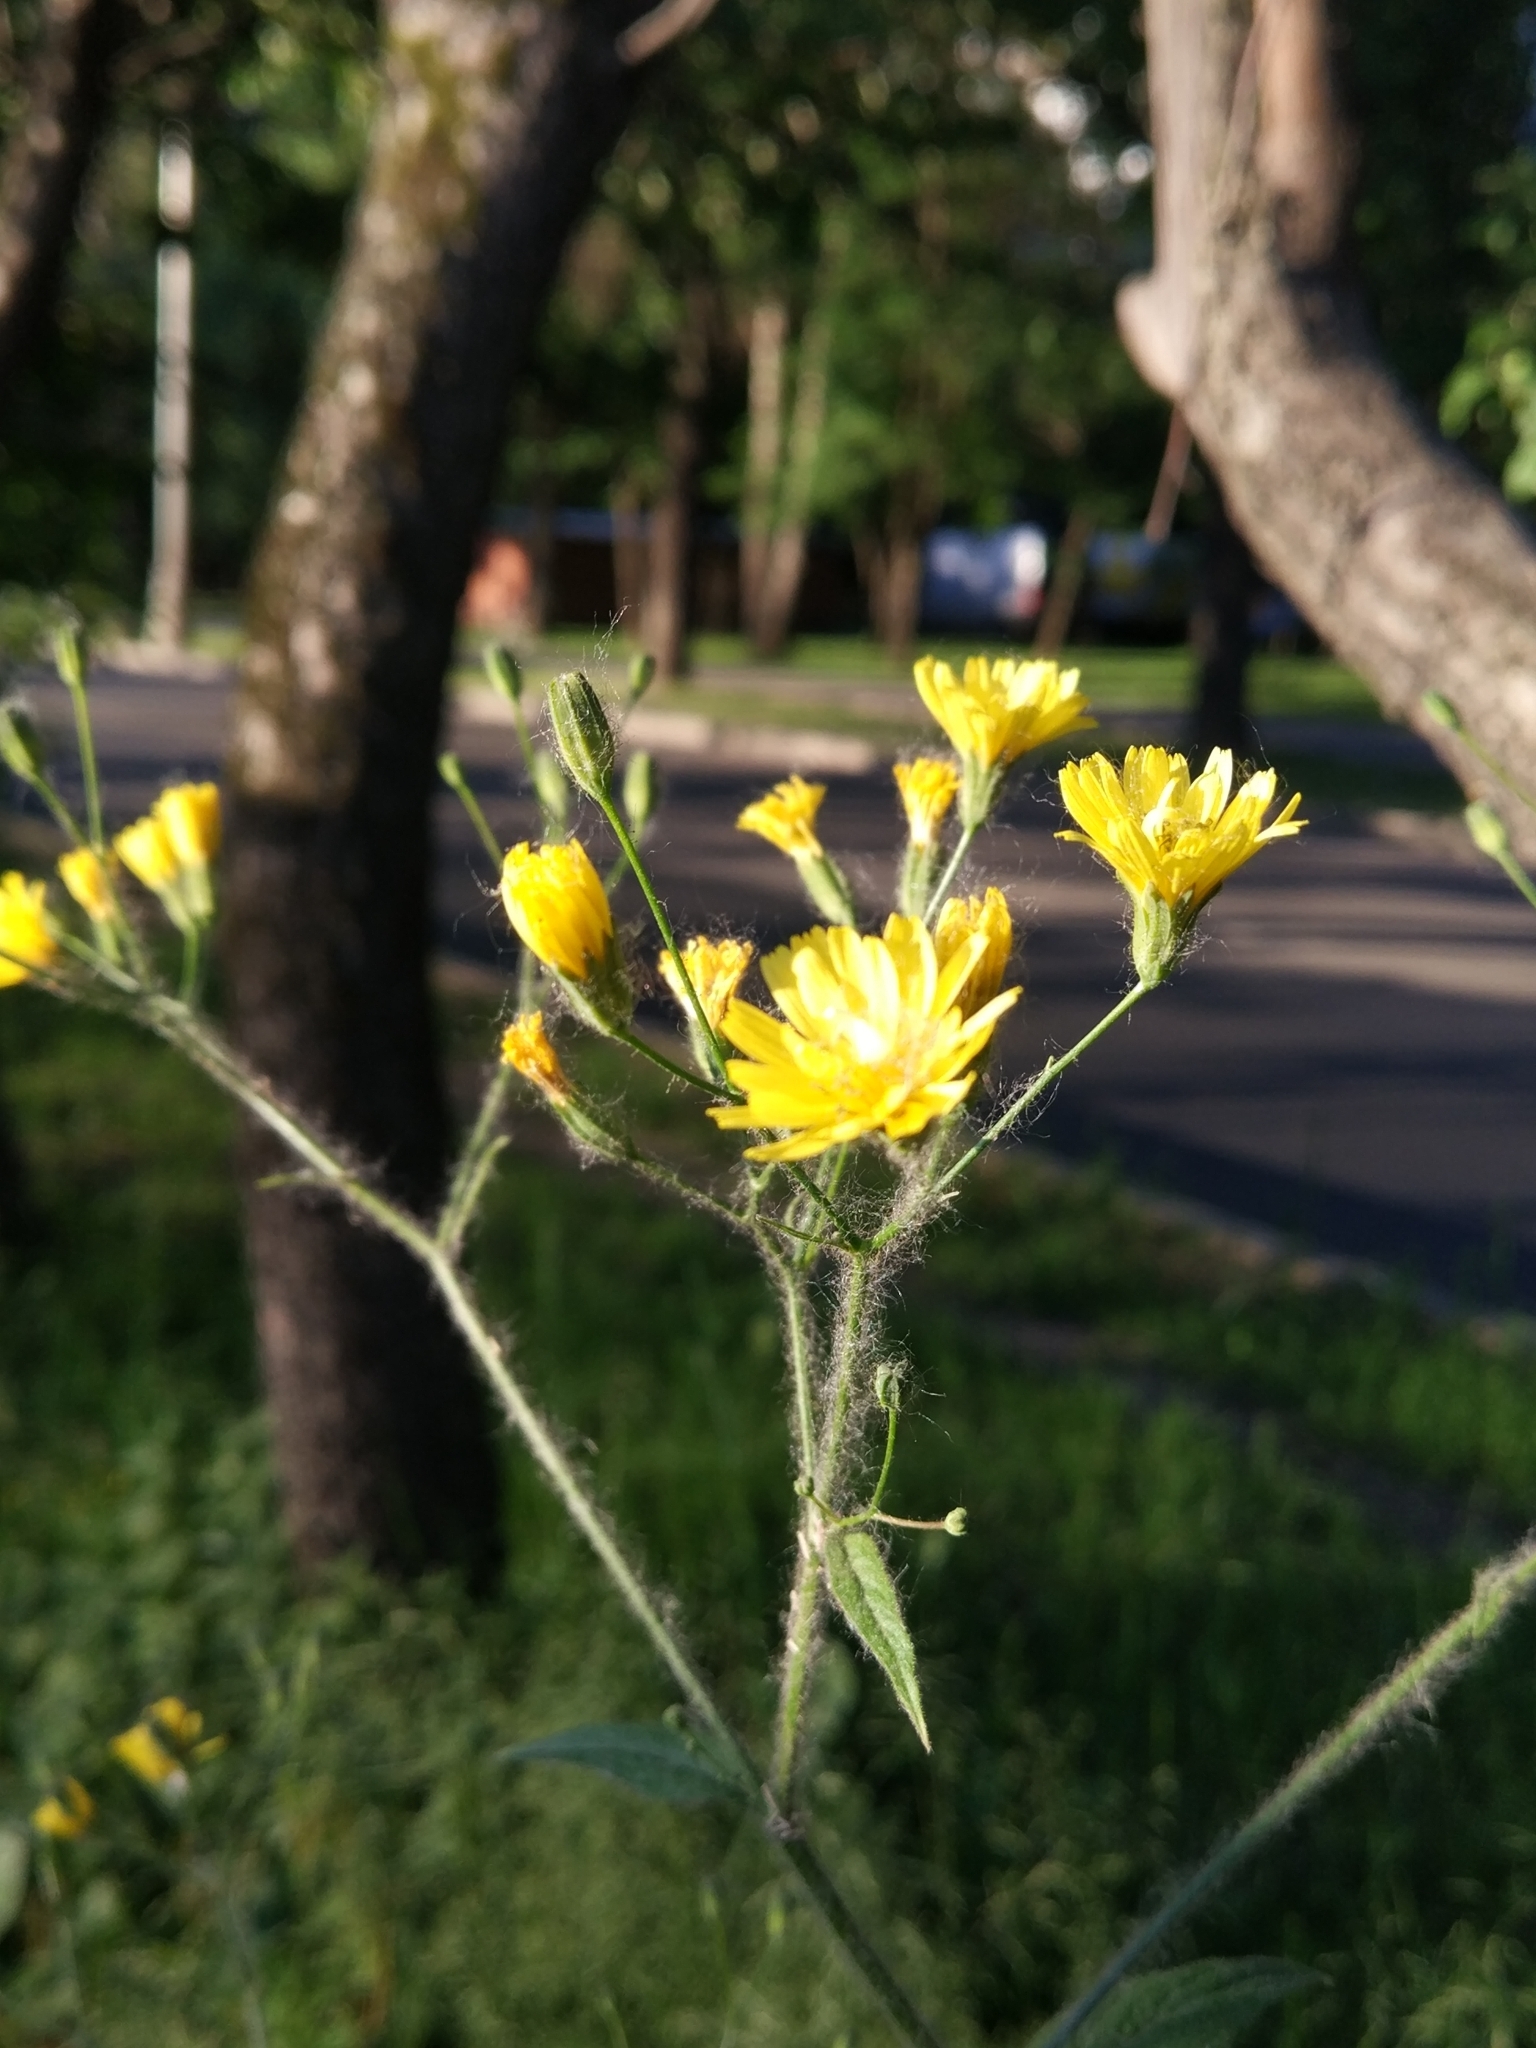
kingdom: Plantae
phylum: Tracheophyta
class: Magnoliopsida
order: Asterales
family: Asteraceae
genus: Lapsana
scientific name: Lapsana communis
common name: Nipplewort
